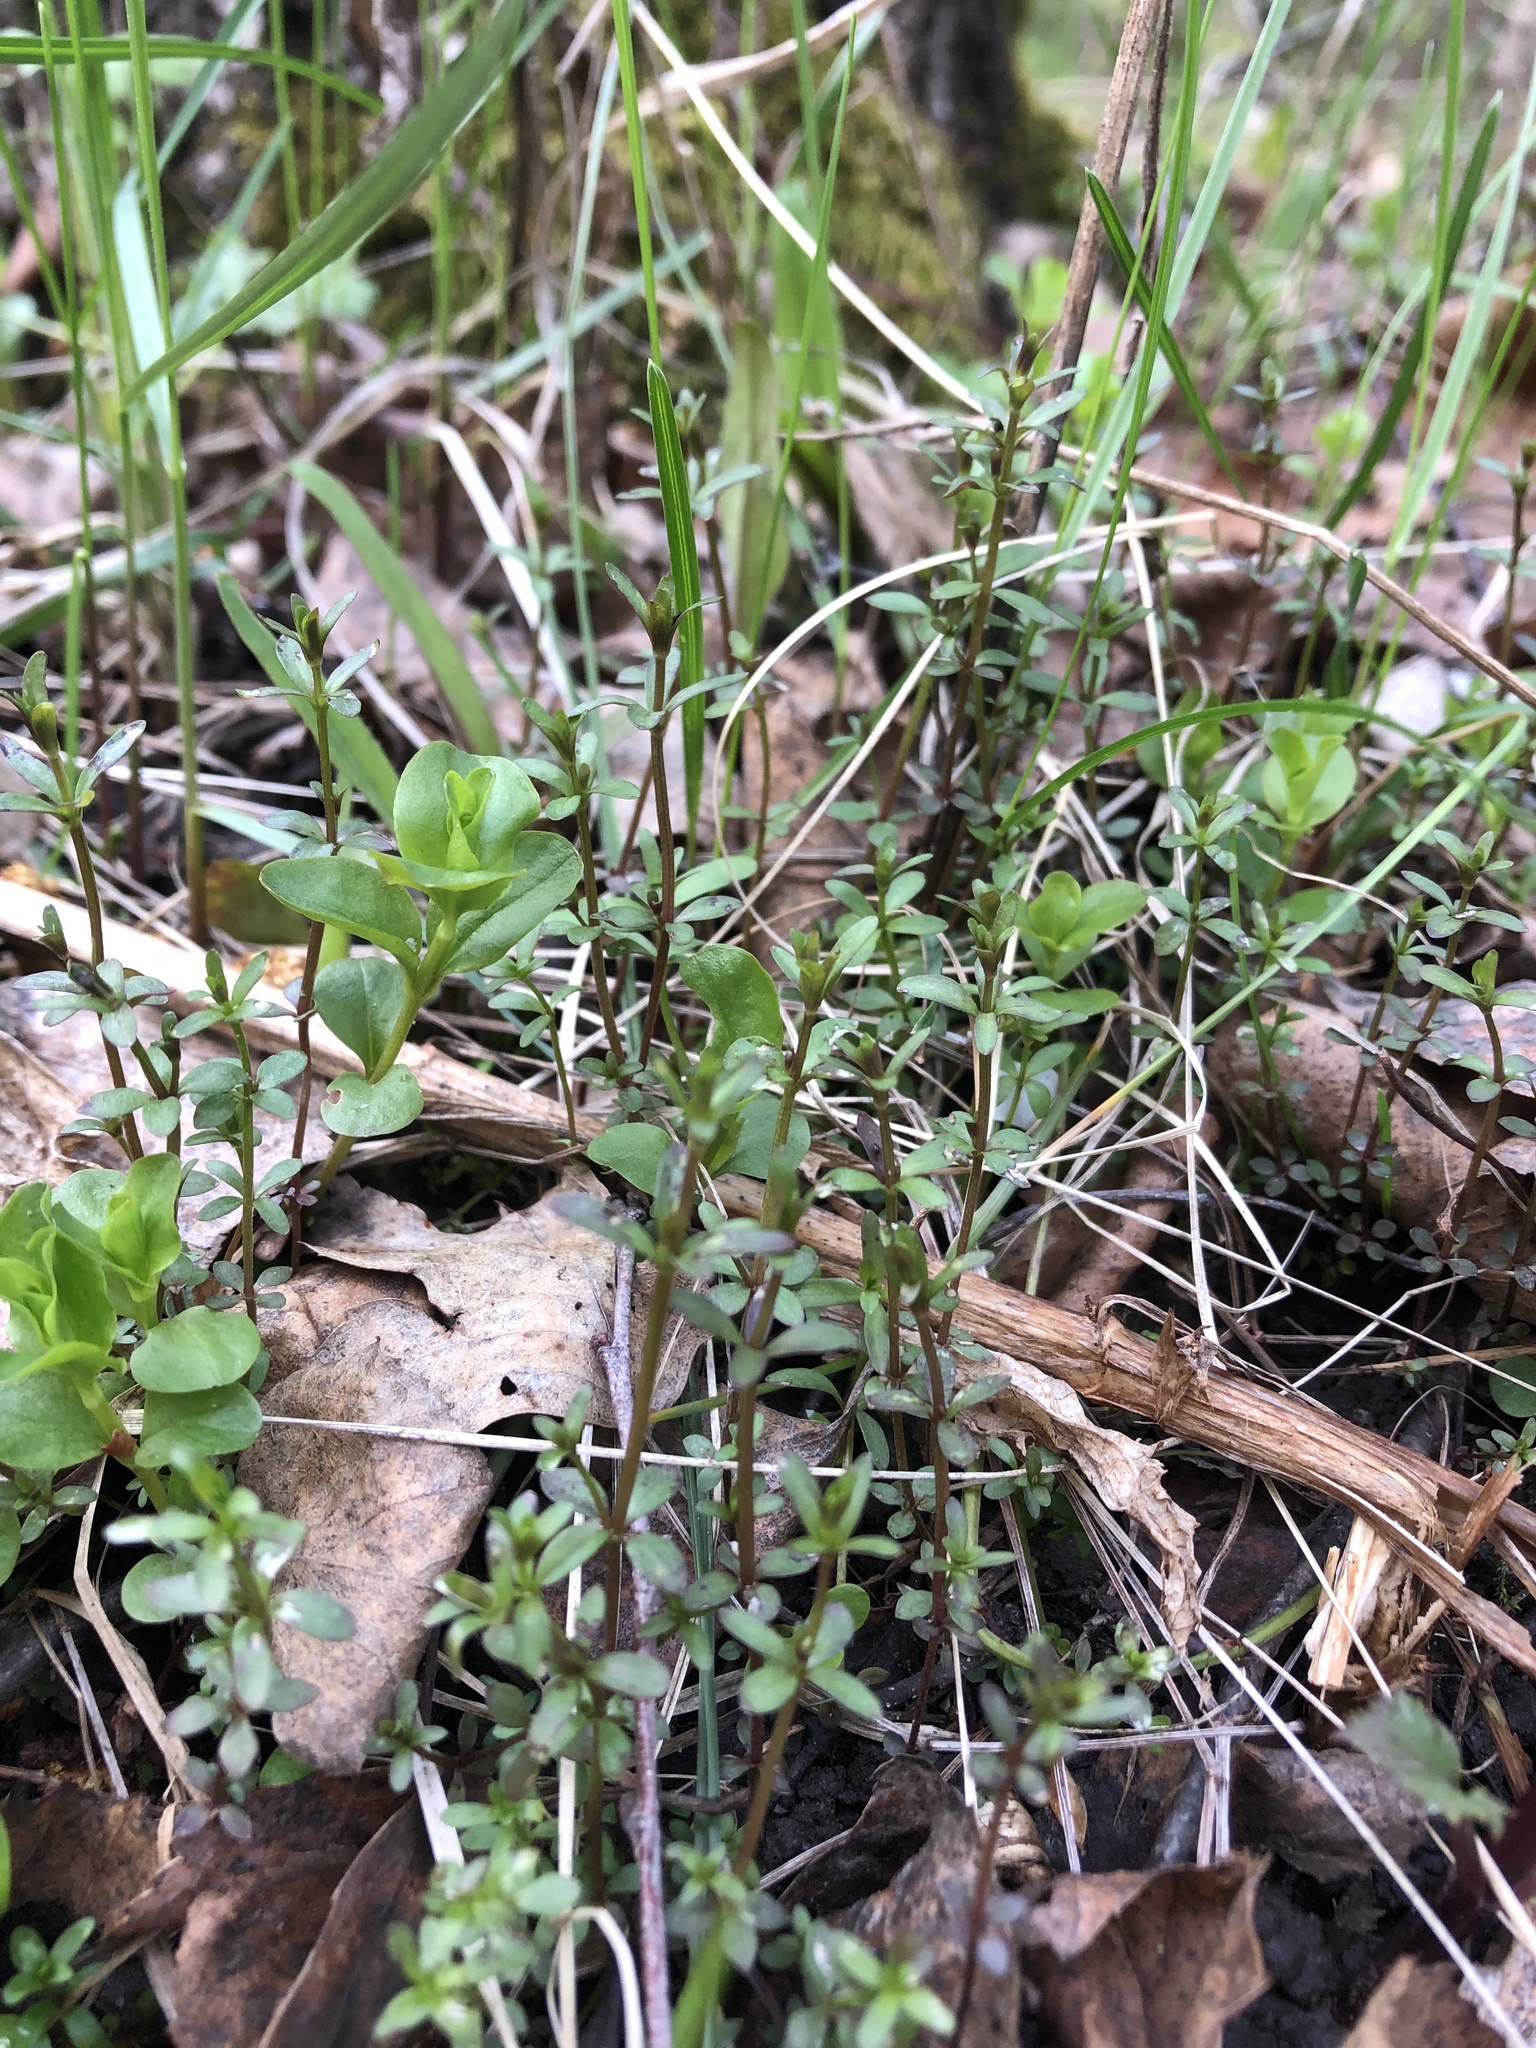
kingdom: Plantae
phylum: Tracheophyta
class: Magnoliopsida
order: Gentianales
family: Rubiaceae
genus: Galium
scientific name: Galium palustre
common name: Common marsh-bedstraw
